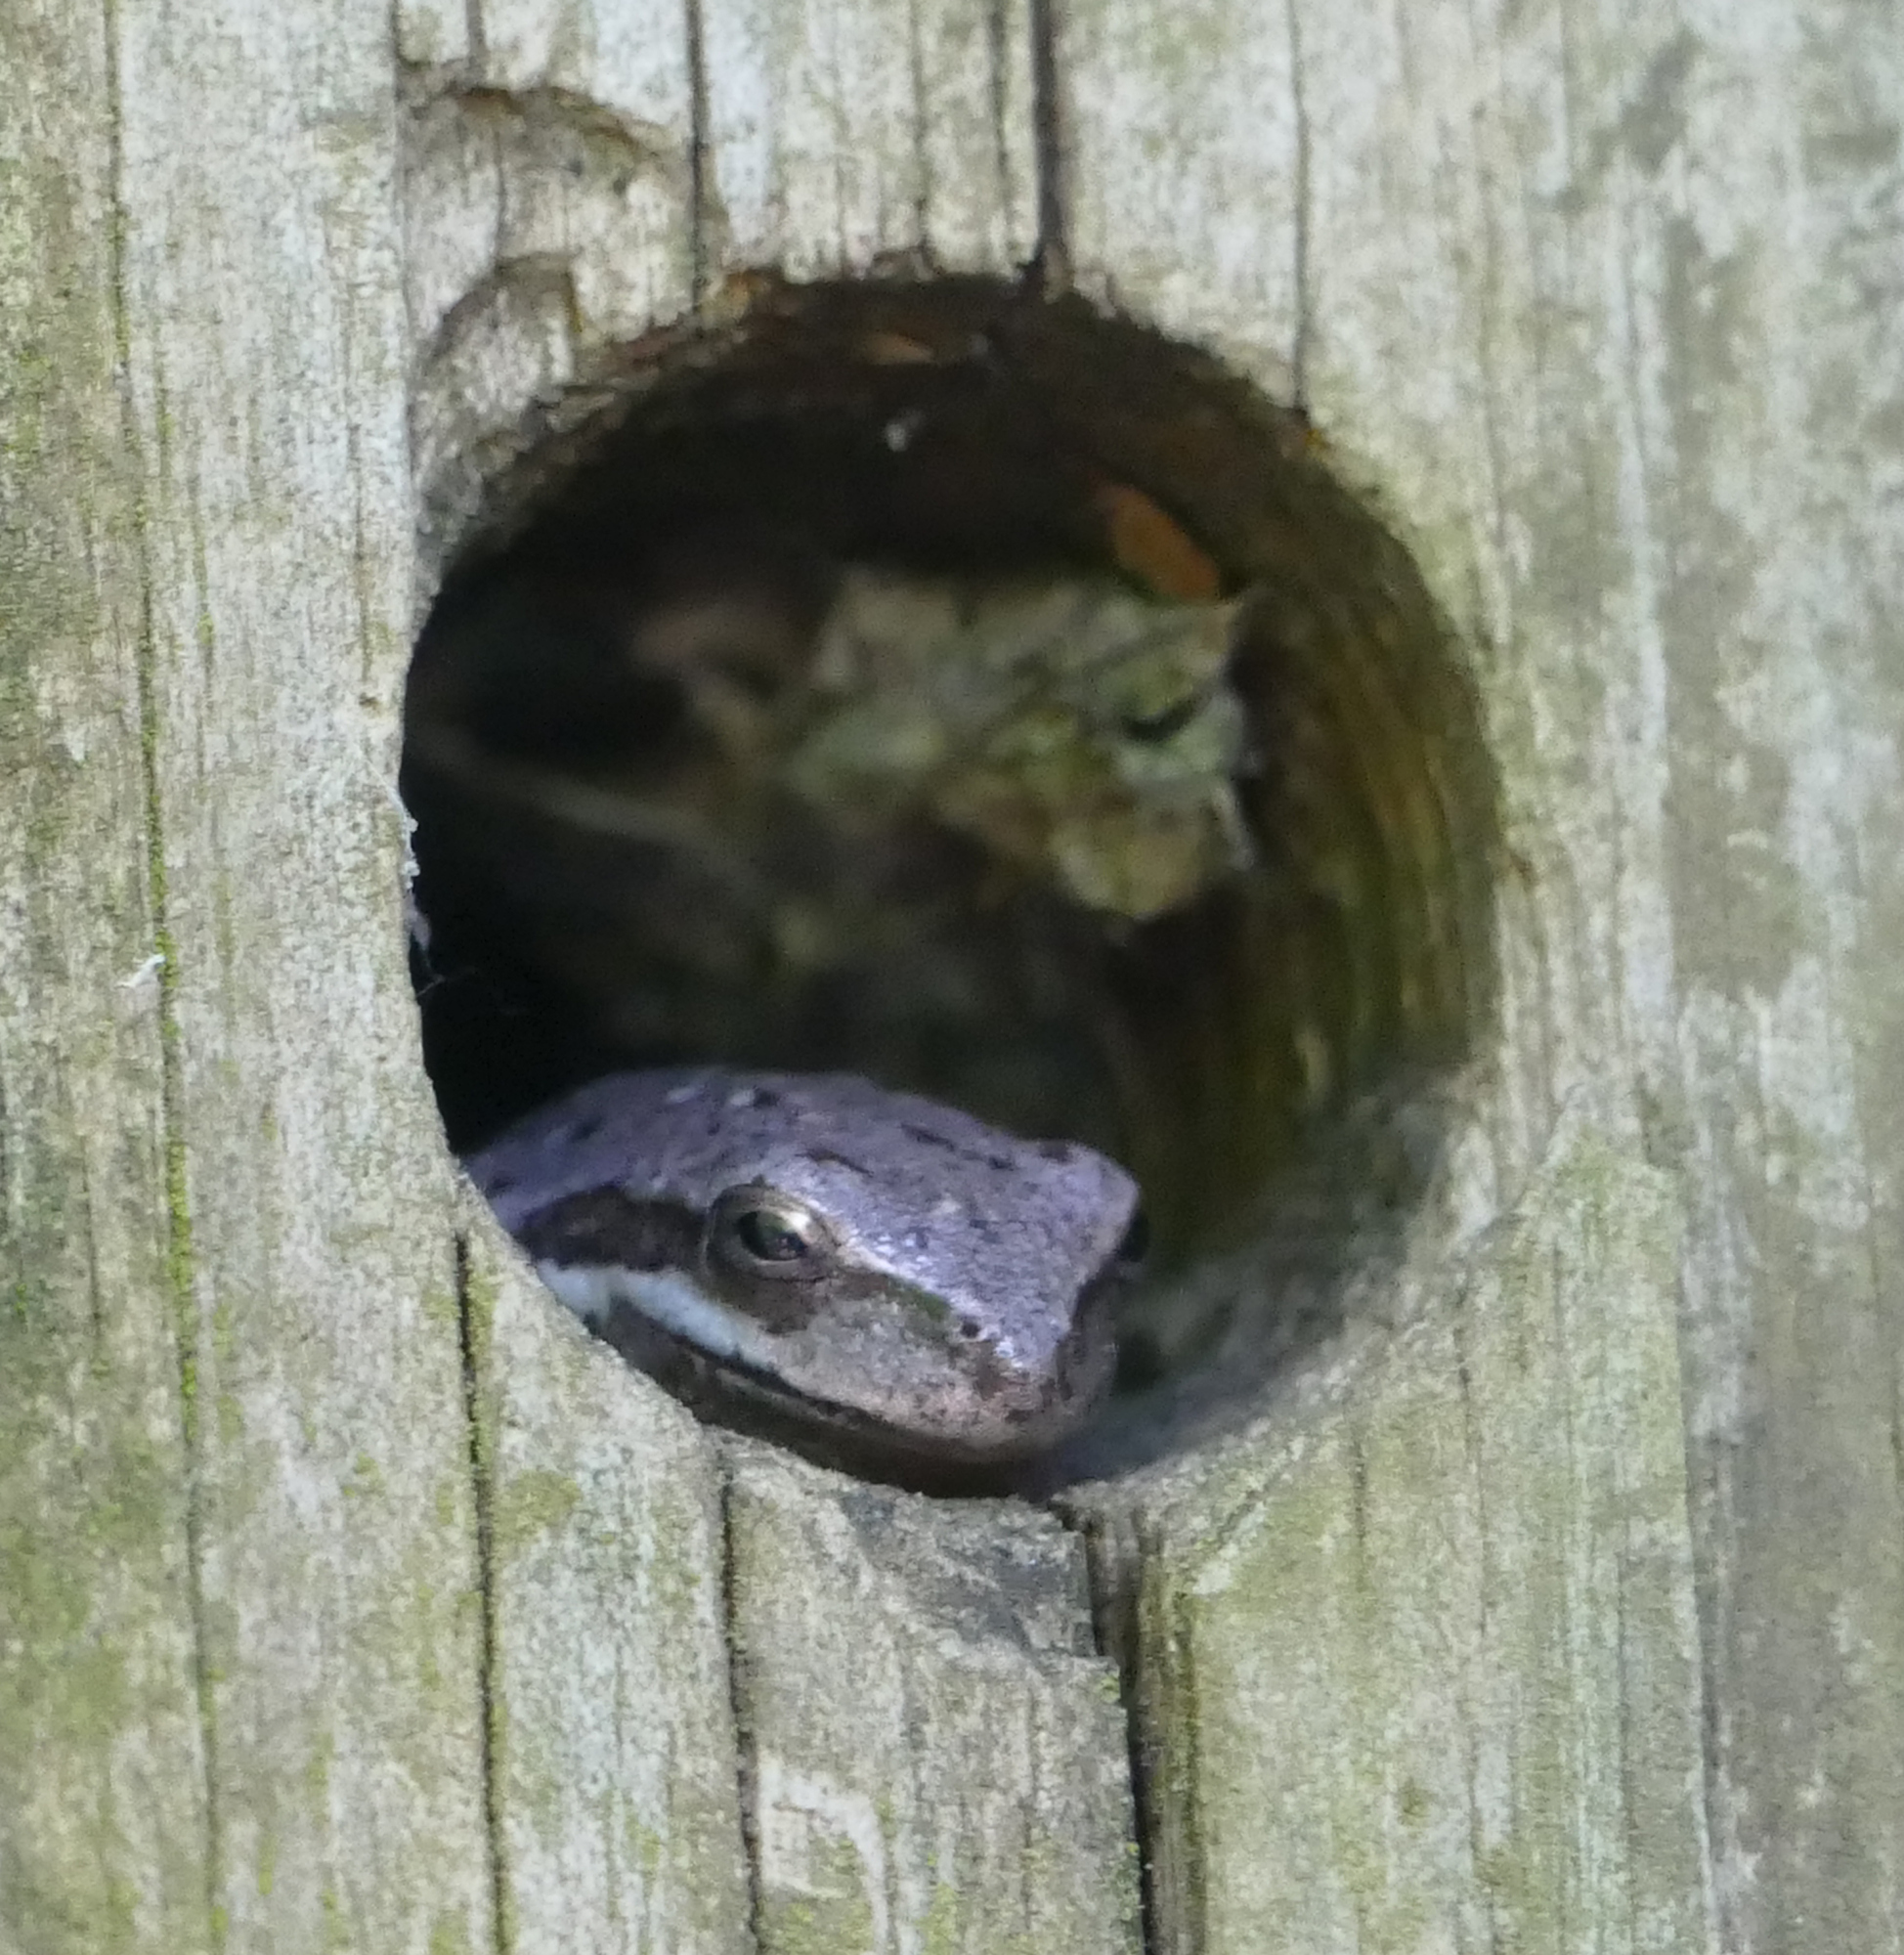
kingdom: Animalia
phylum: Chordata
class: Amphibia
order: Anura
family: Hylidae
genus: Dryophytes
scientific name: Dryophytes squirellus
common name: Squirrel treefrog
